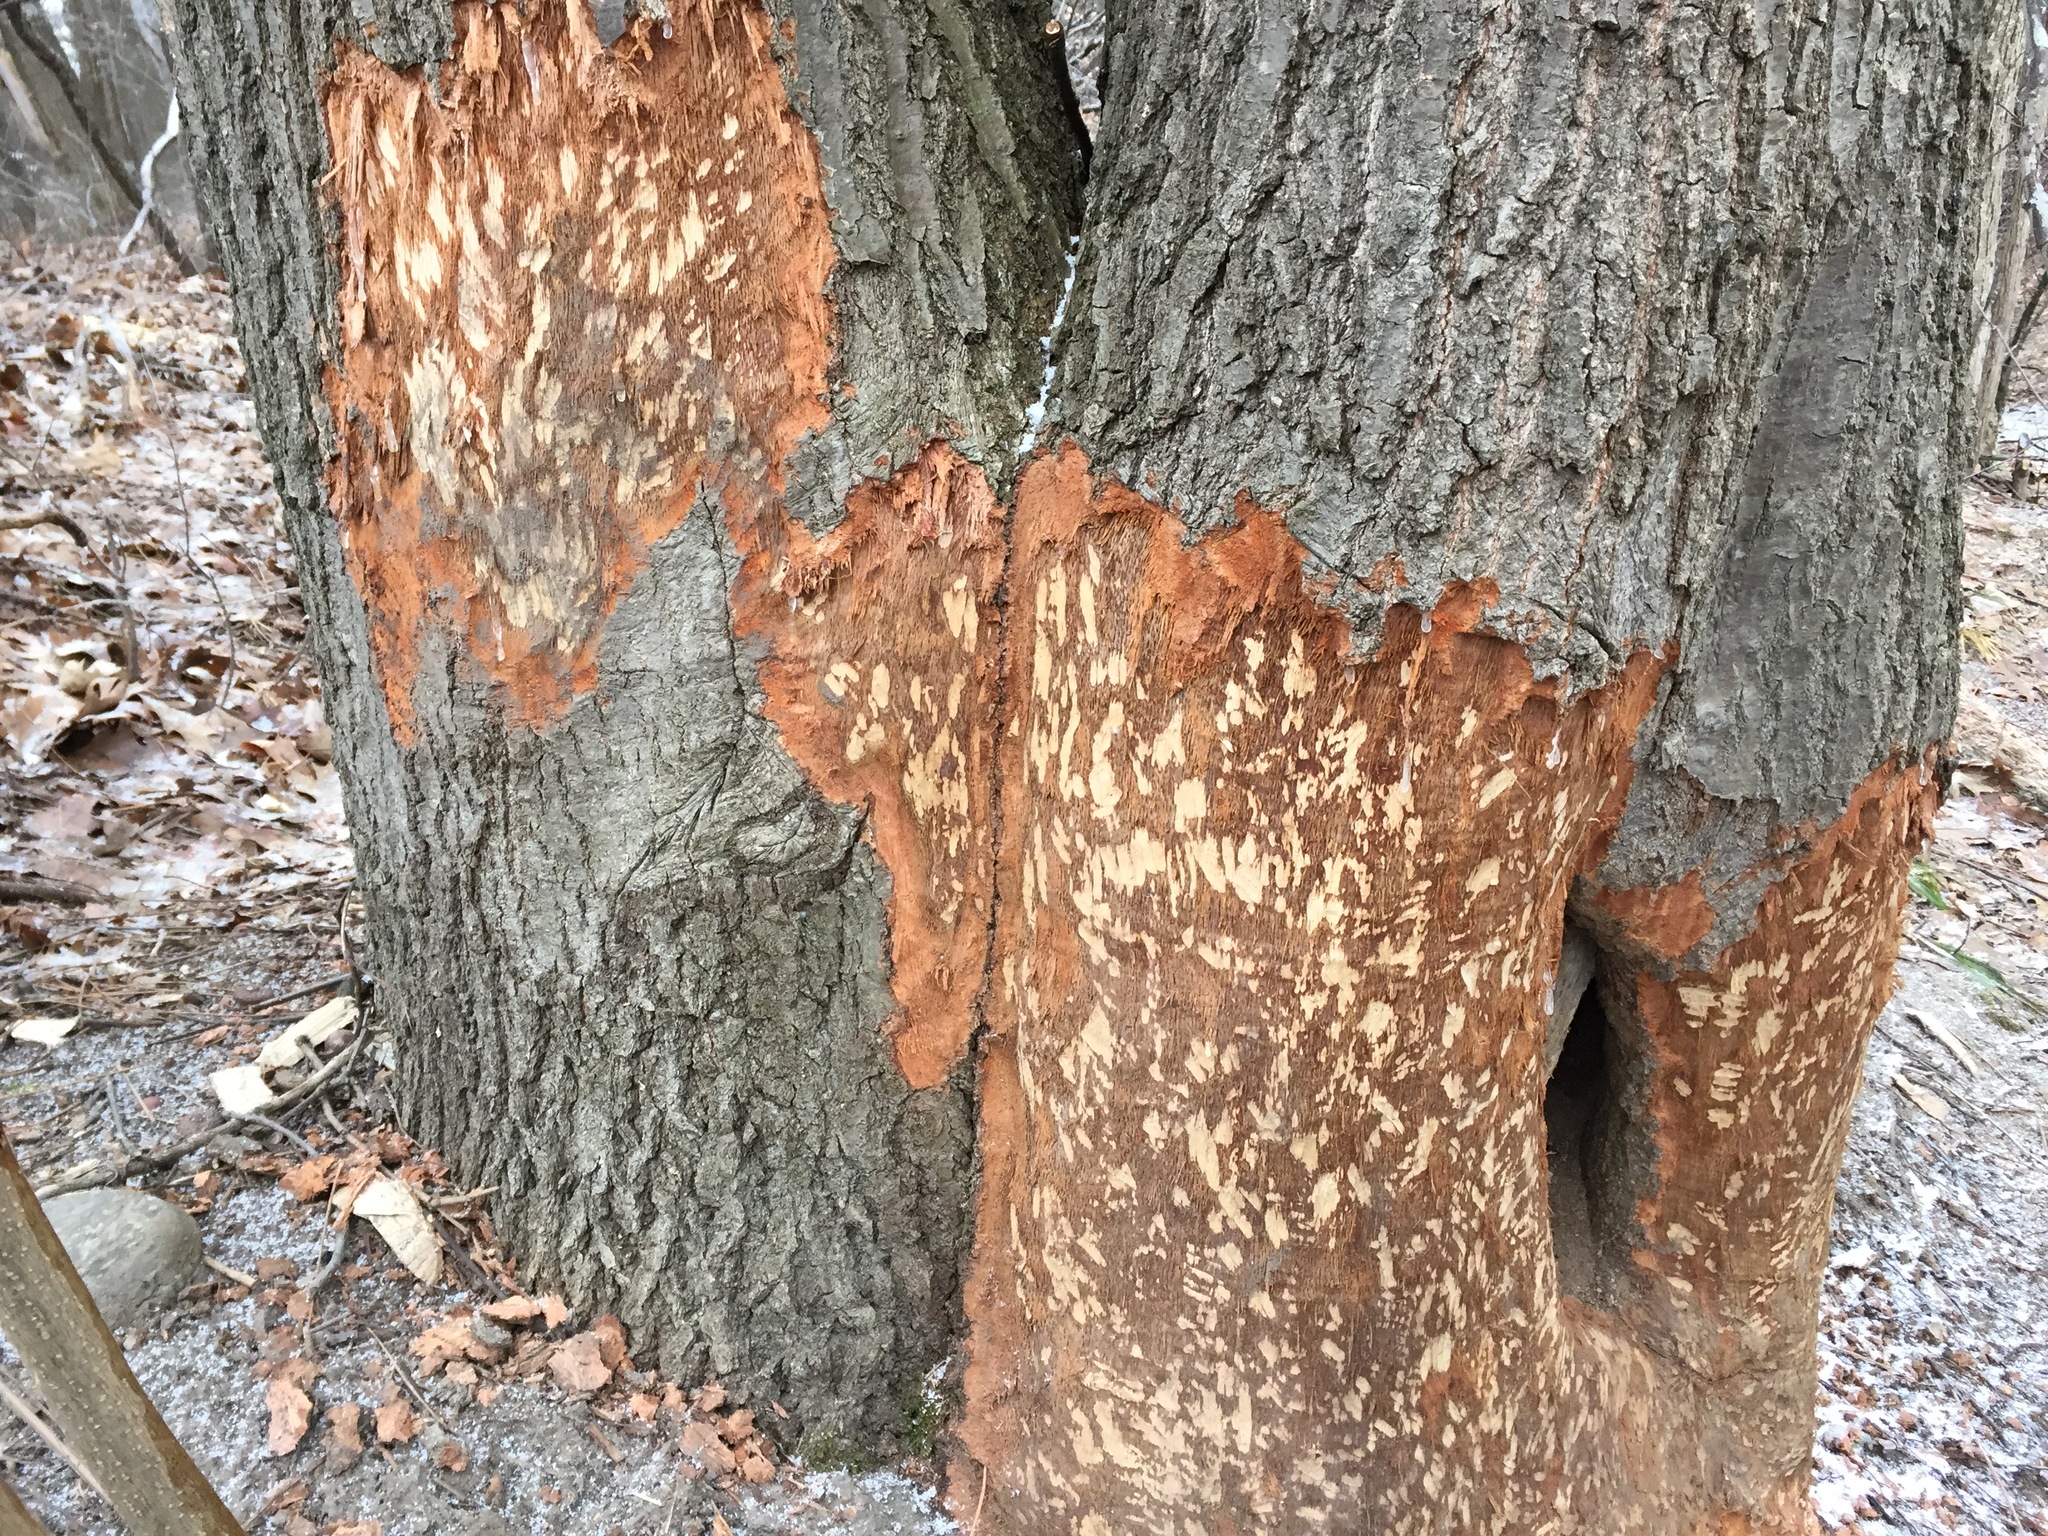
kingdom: Animalia
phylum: Chordata
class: Mammalia
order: Rodentia
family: Castoridae
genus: Castor
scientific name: Castor canadensis
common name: American beaver
